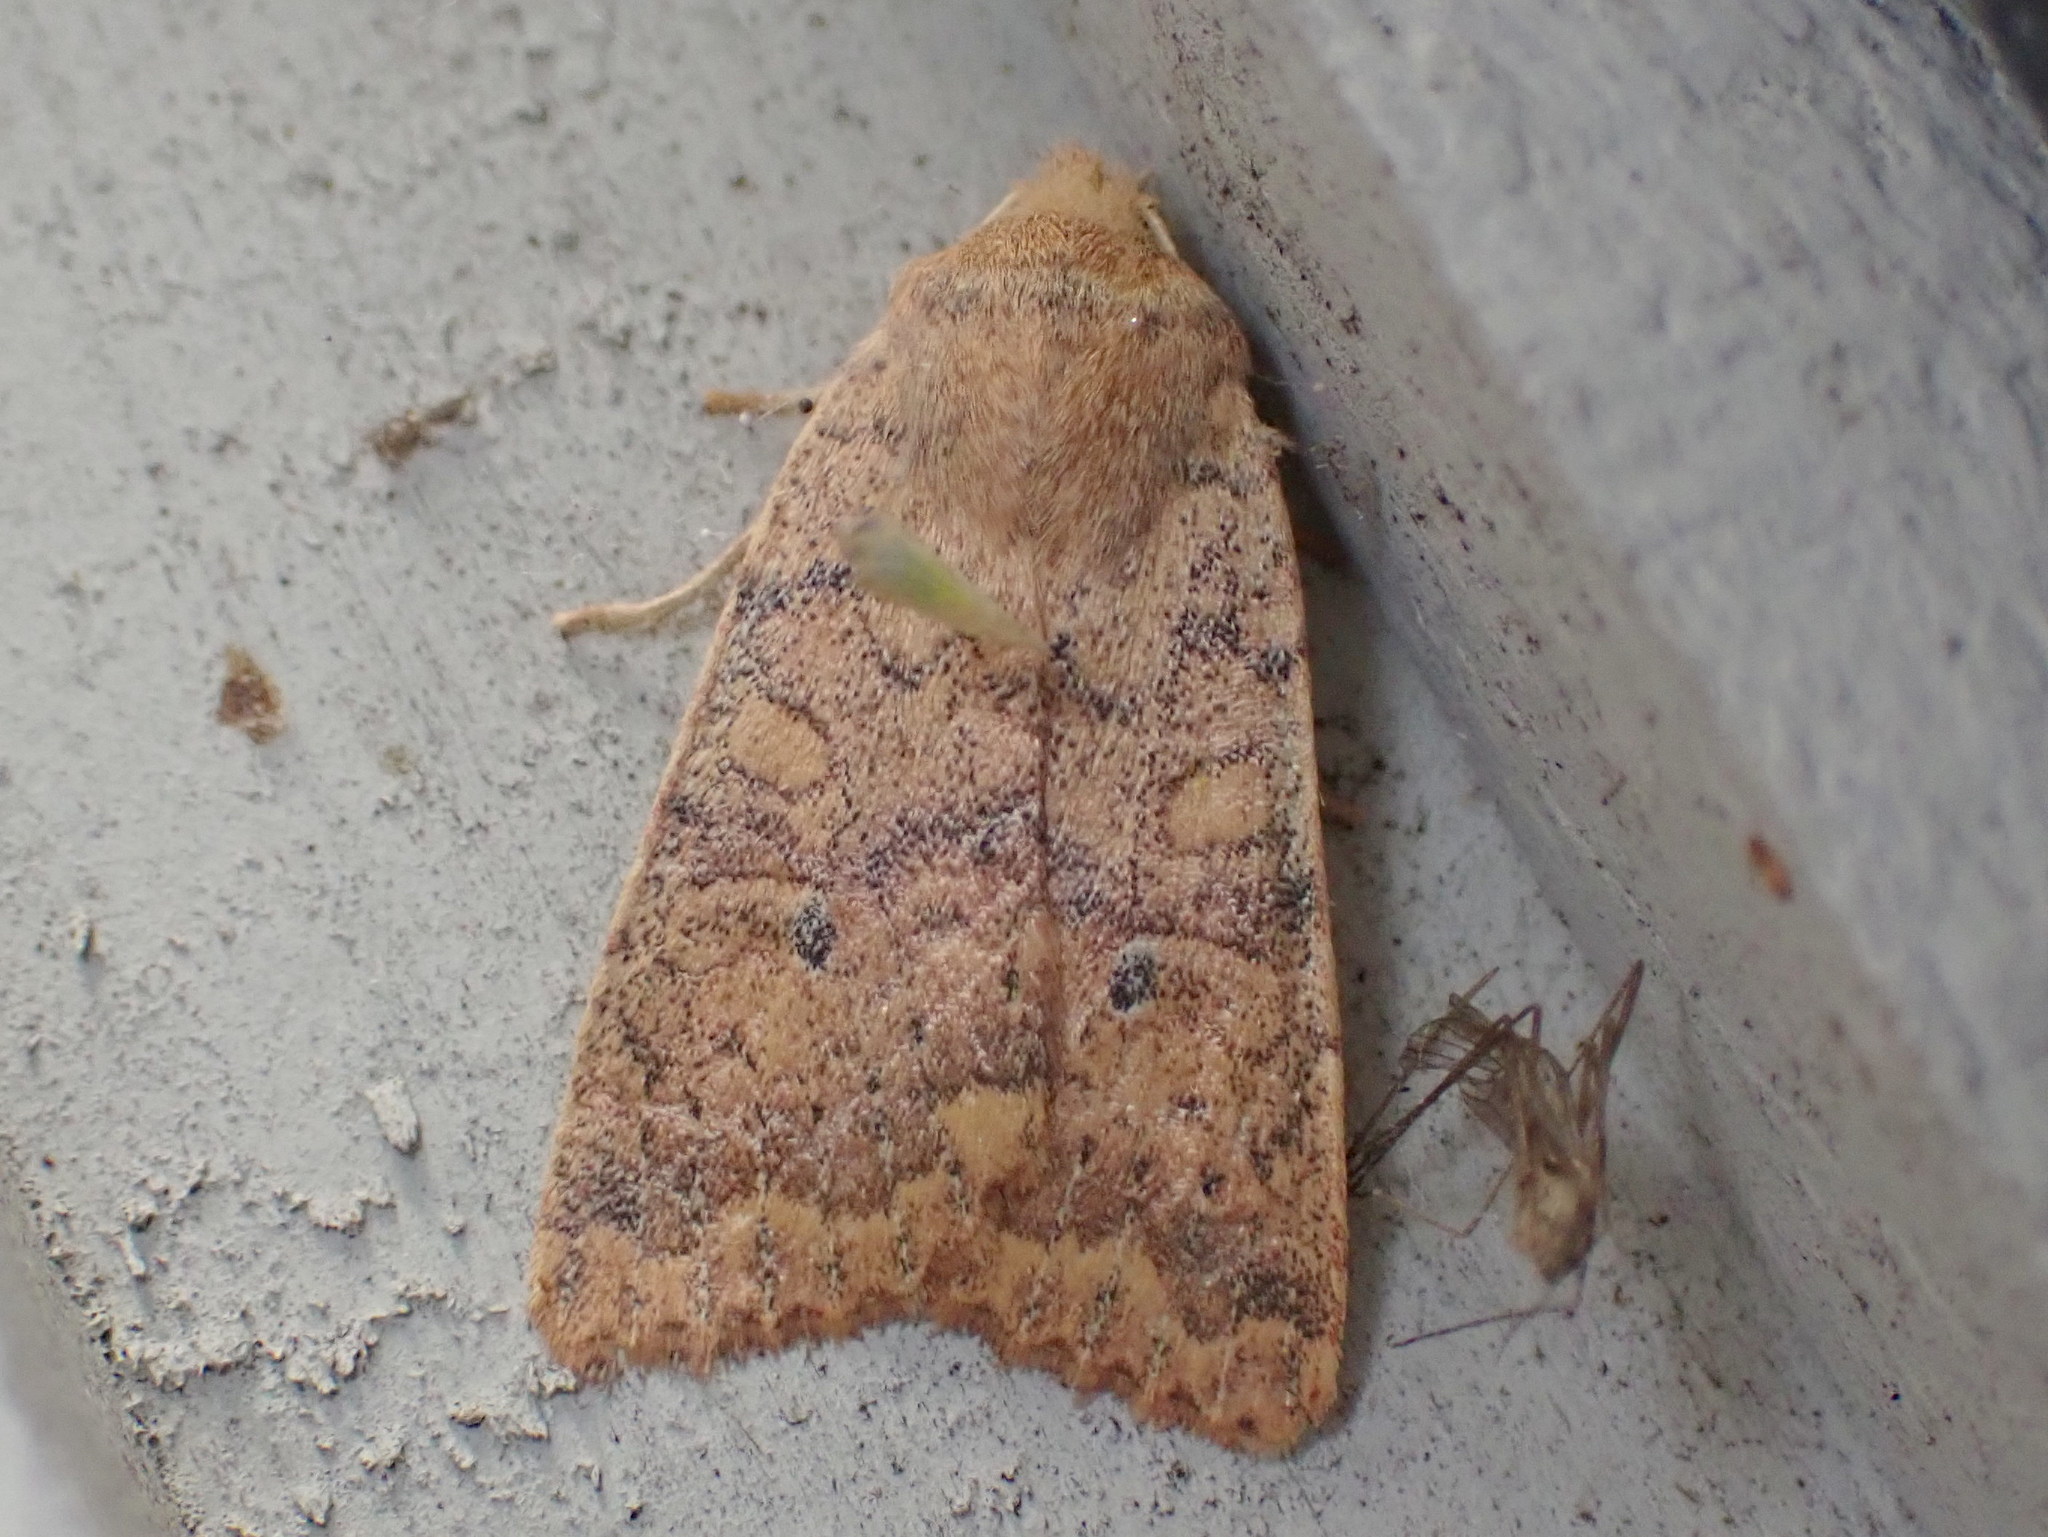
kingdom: Animalia
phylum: Arthropoda
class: Insecta
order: Lepidoptera
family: Noctuidae
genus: Agrochola
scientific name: Agrochola bicolorago
